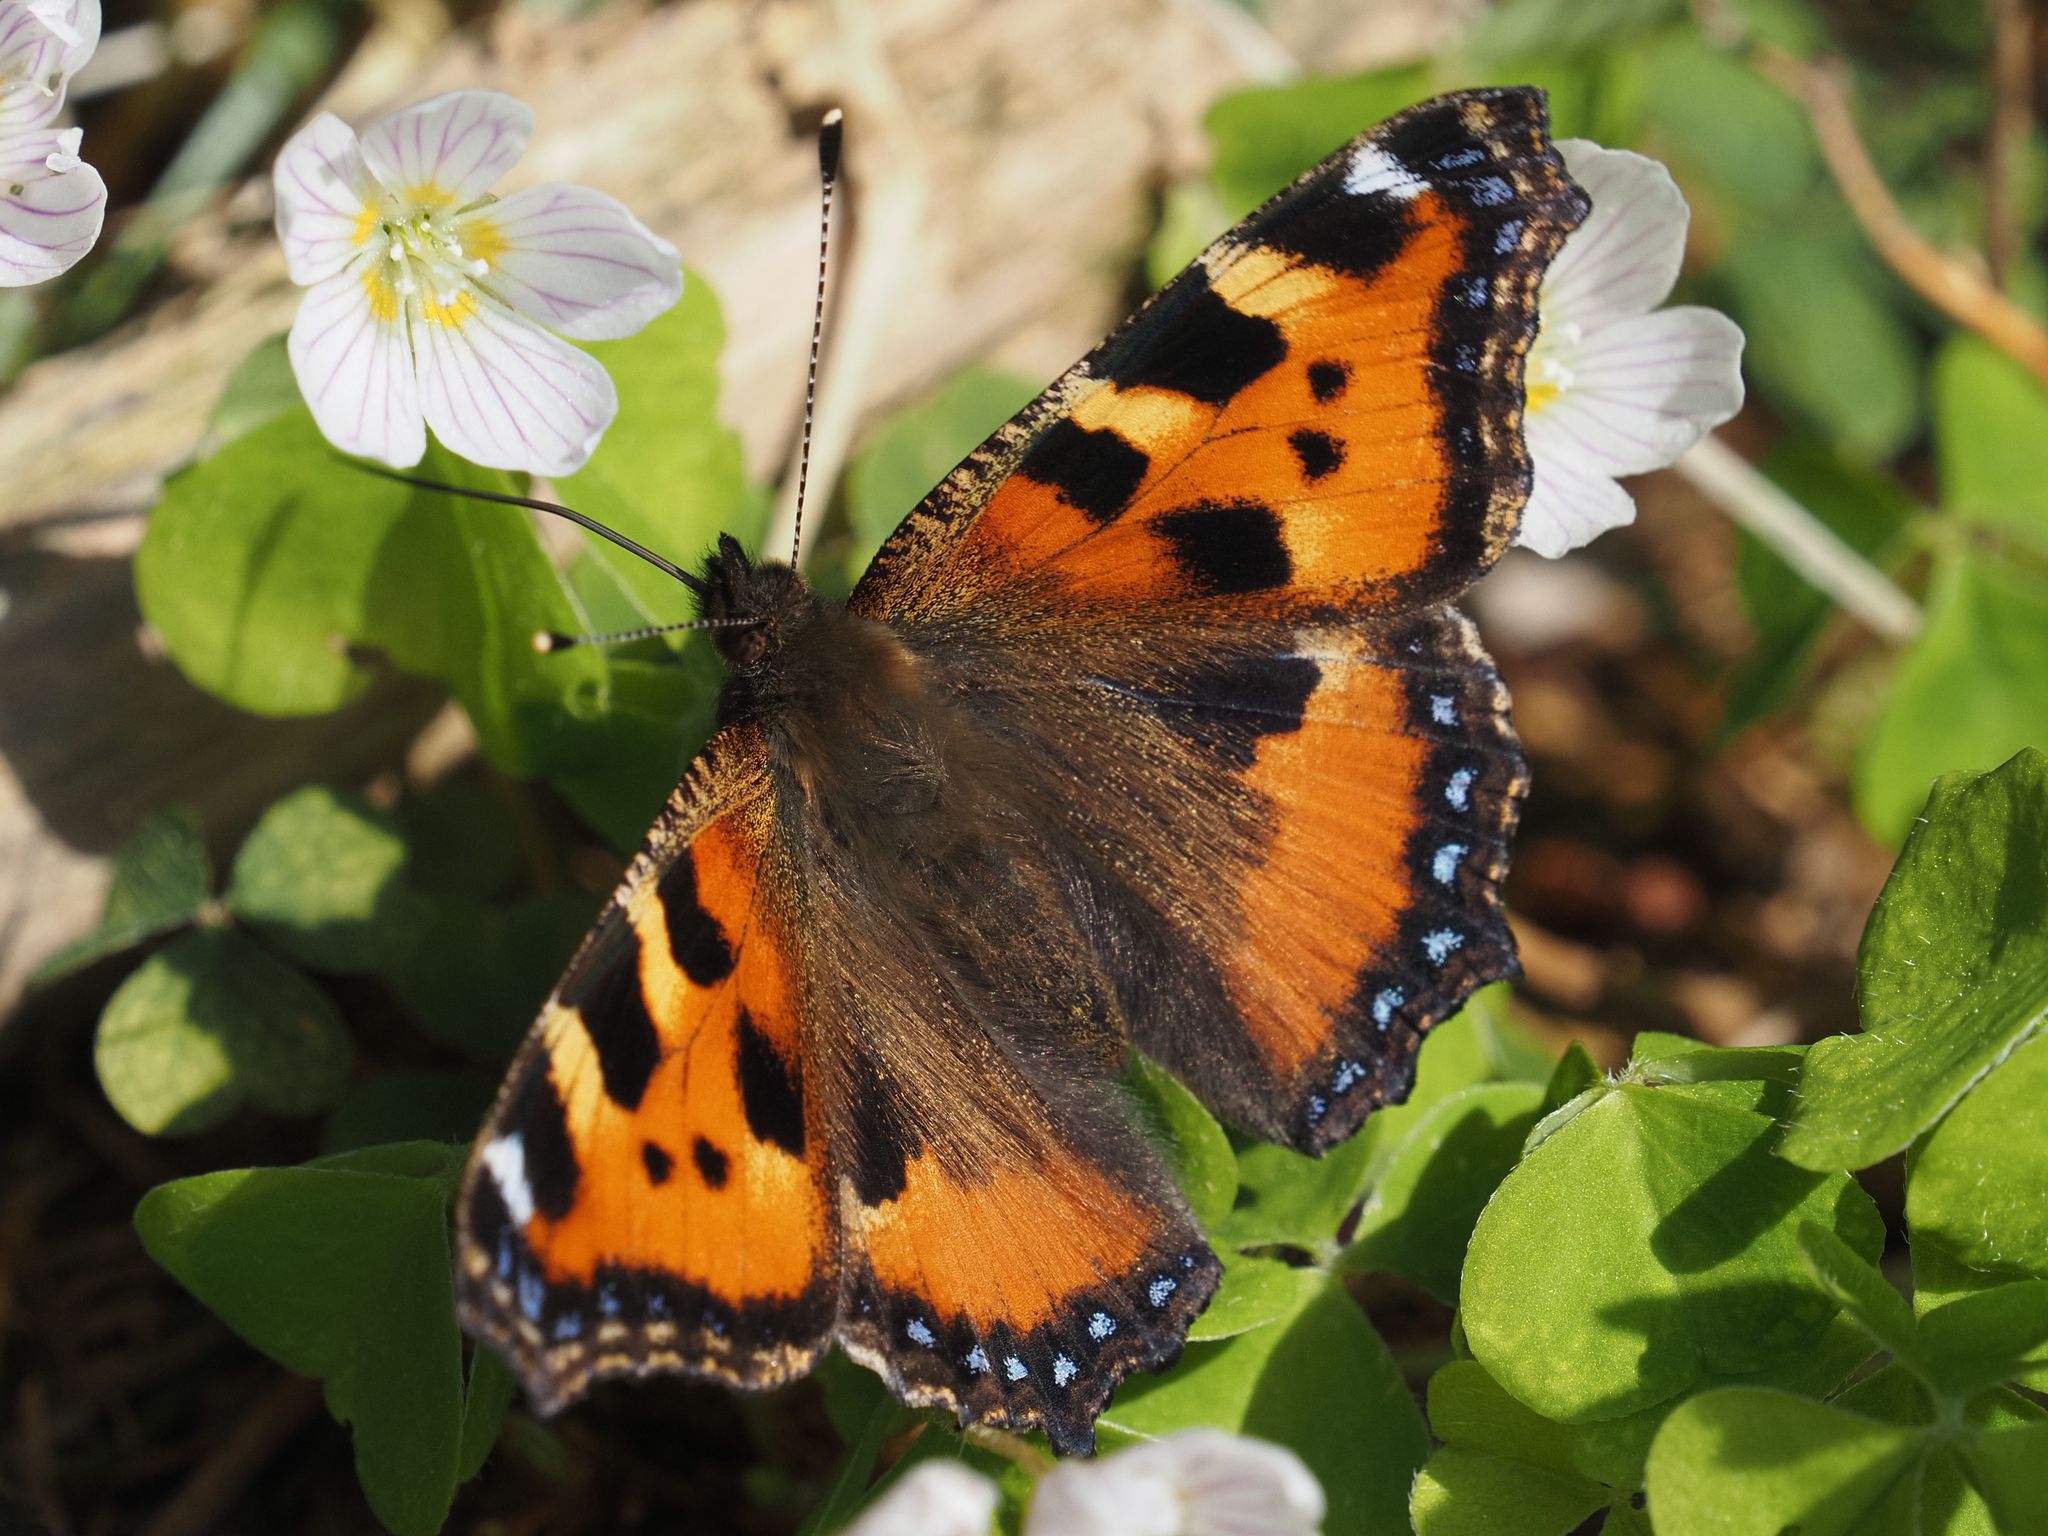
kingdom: Animalia
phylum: Arthropoda
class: Insecta
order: Lepidoptera
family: Nymphalidae
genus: Aglais
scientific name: Aglais urticae
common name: Small tortoiseshell
